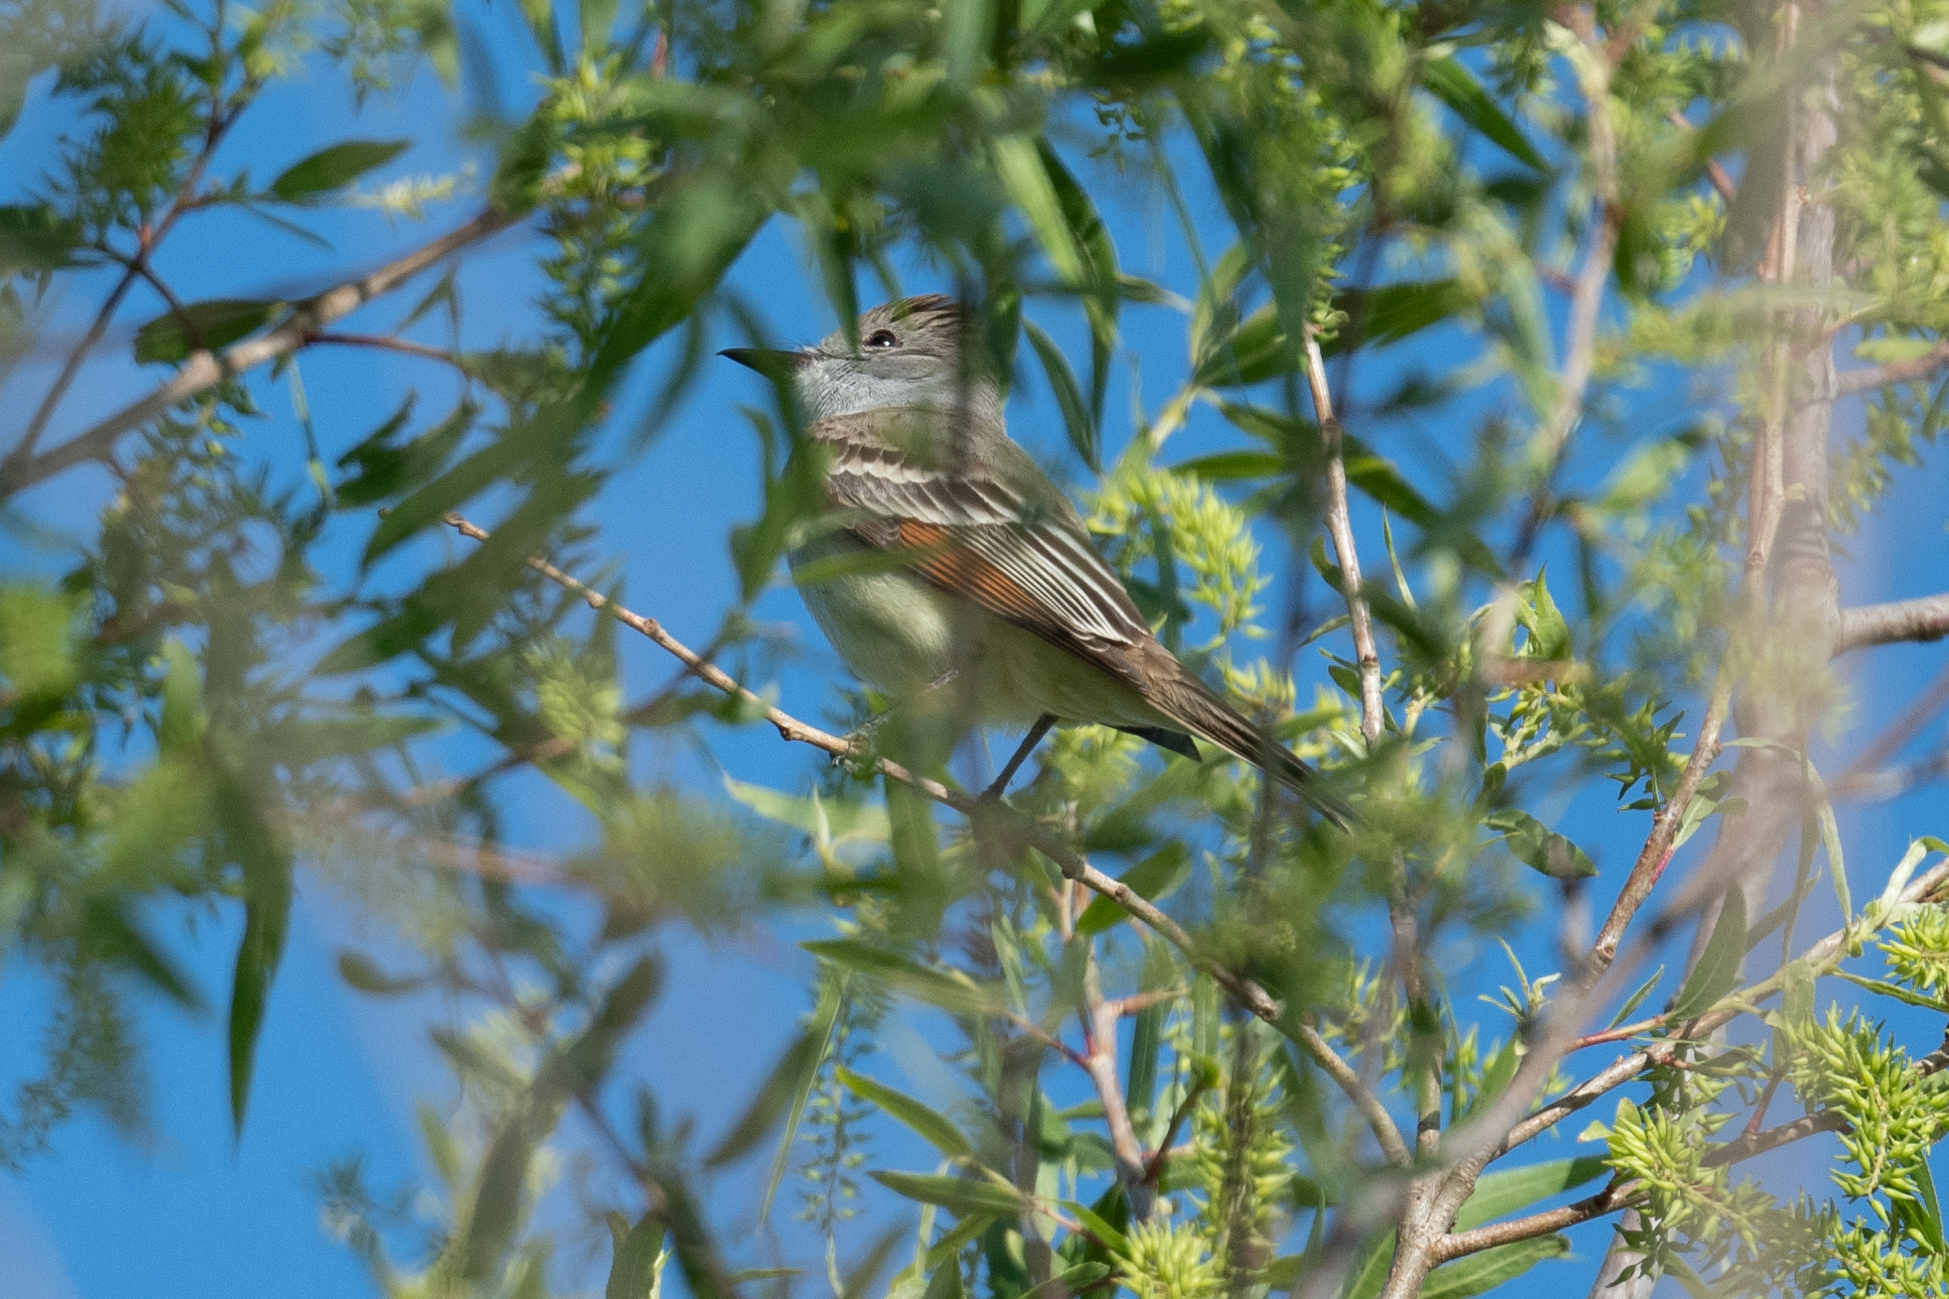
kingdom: Animalia
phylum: Chordata
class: Aves
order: Passeriformes
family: Tyrannidae
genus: Myiarchus
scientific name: Myiarchus cinerascens
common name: Ash-throated flycatcher
